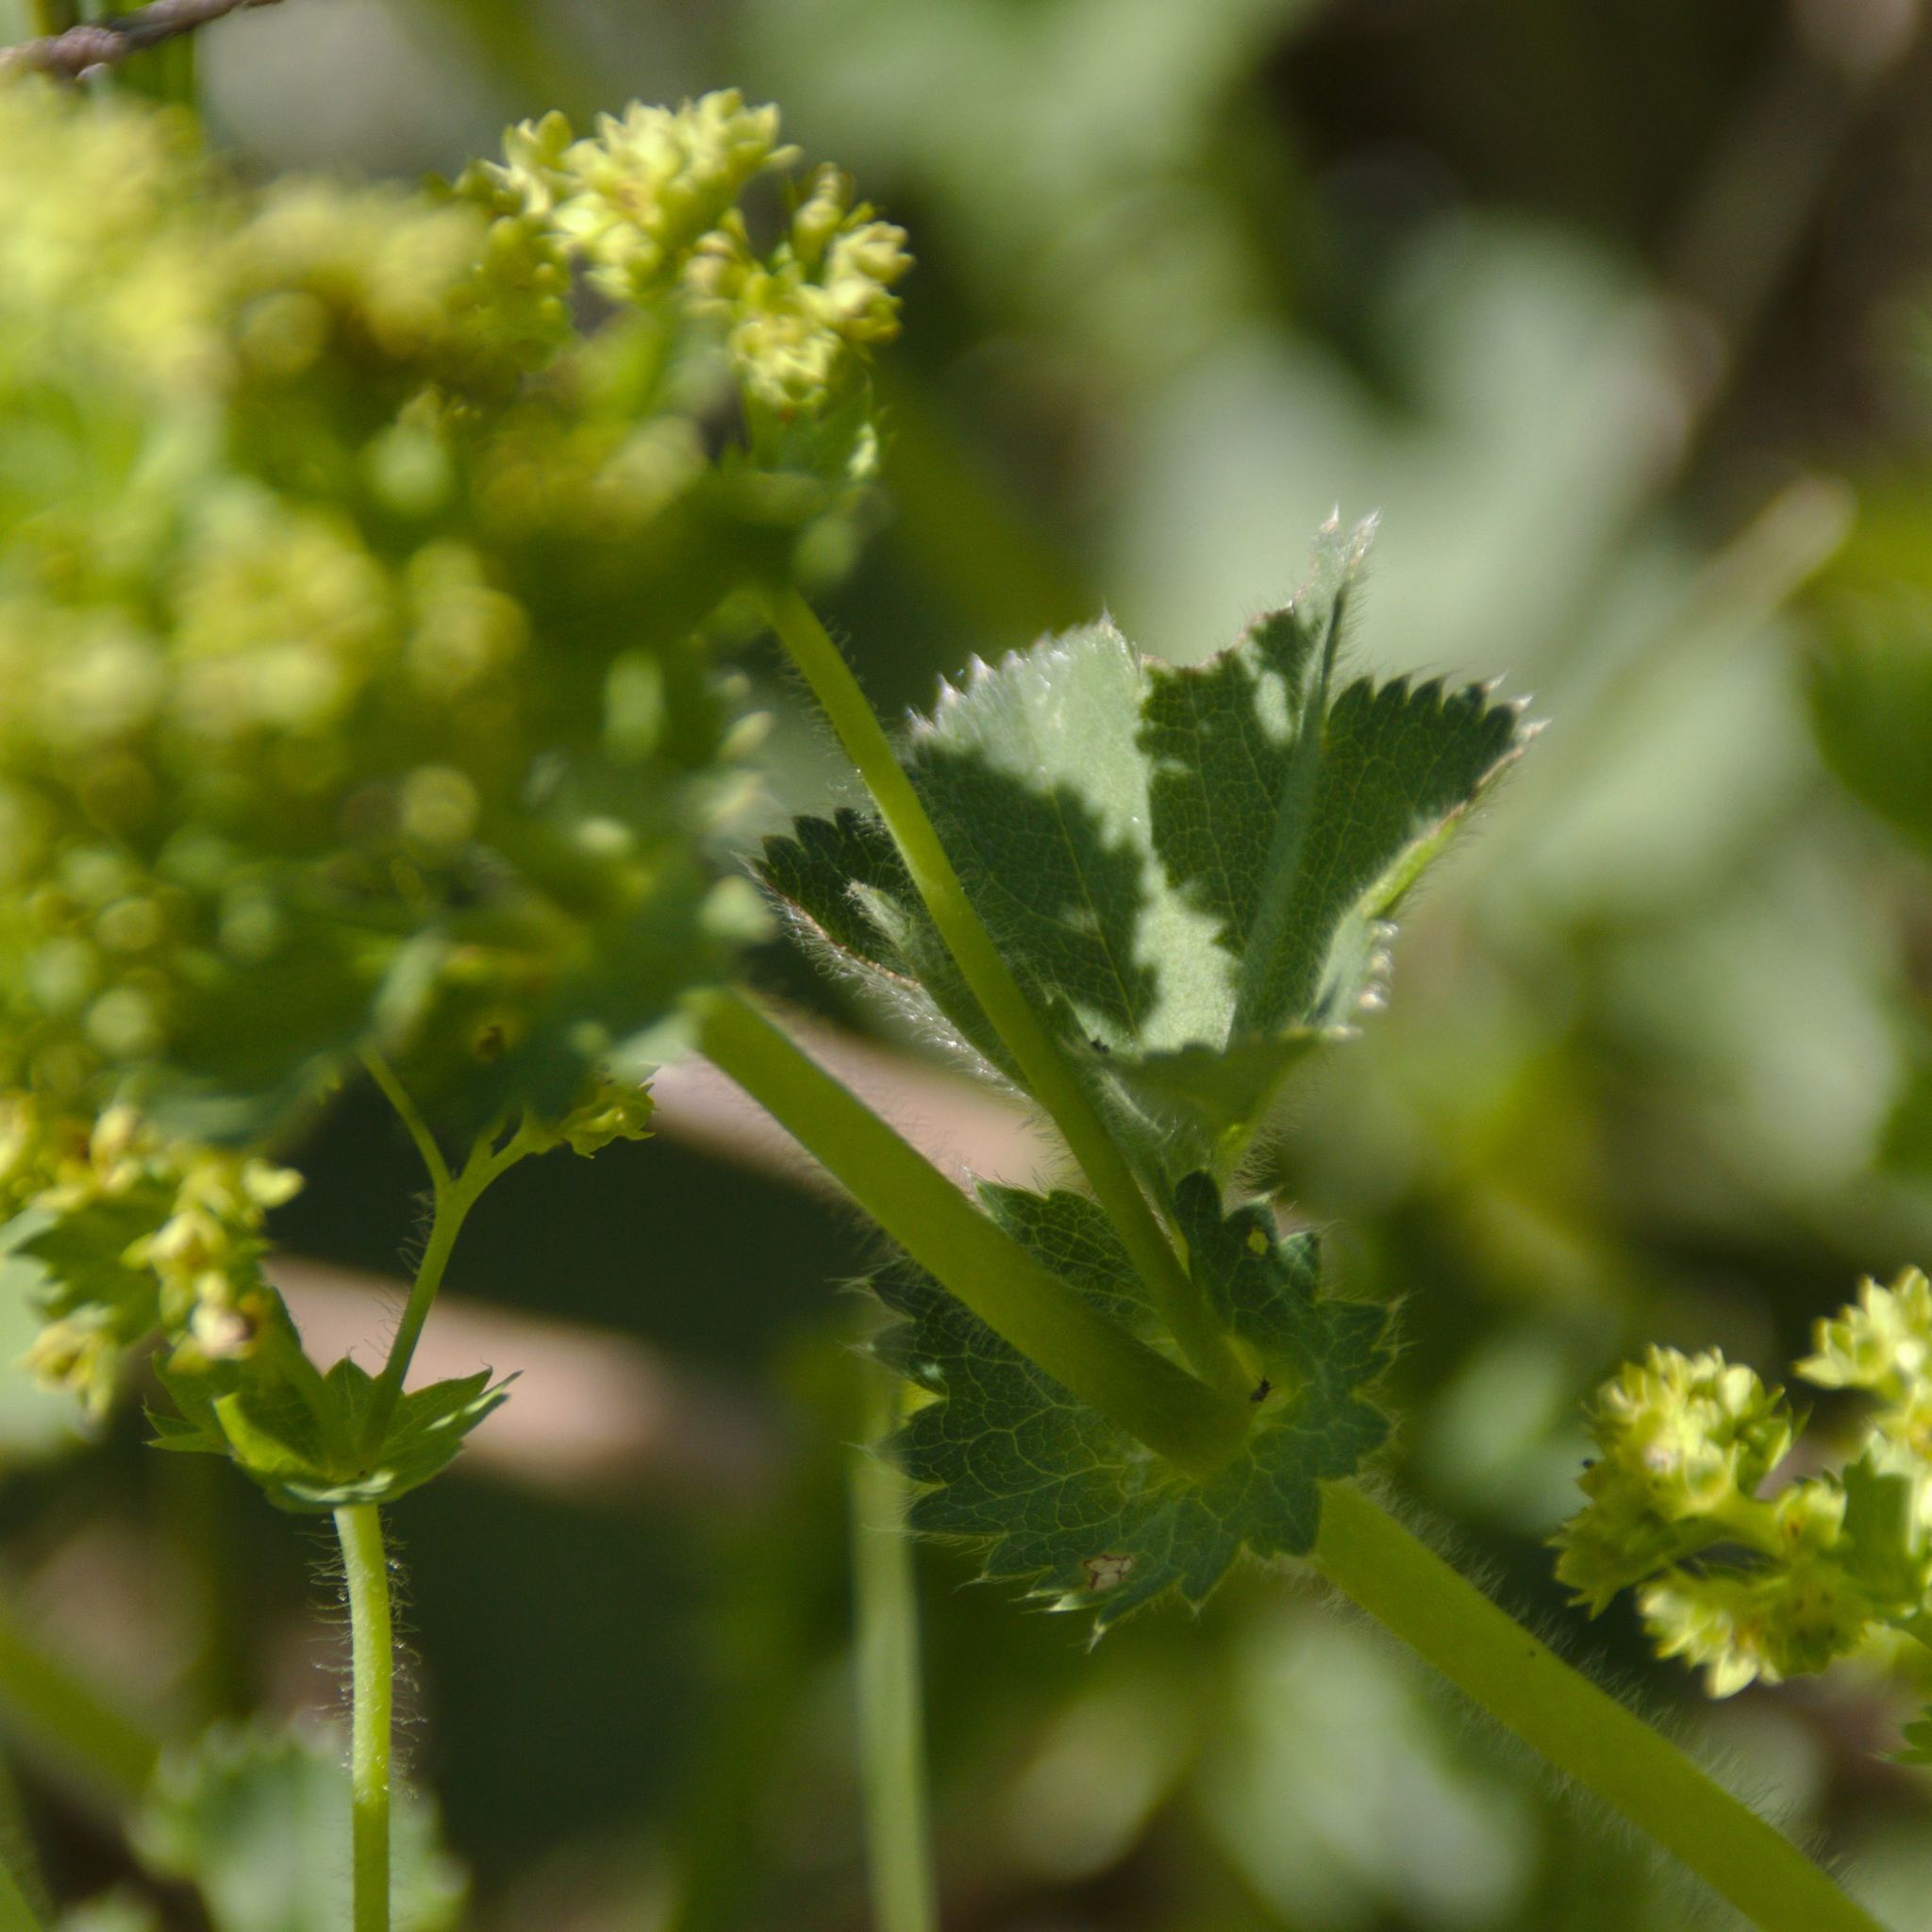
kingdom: Plantae
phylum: Tracheophyta
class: Magnoliopsida
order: Rosales
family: Rosaceae
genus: Alchemilla
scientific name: Alchemilla
